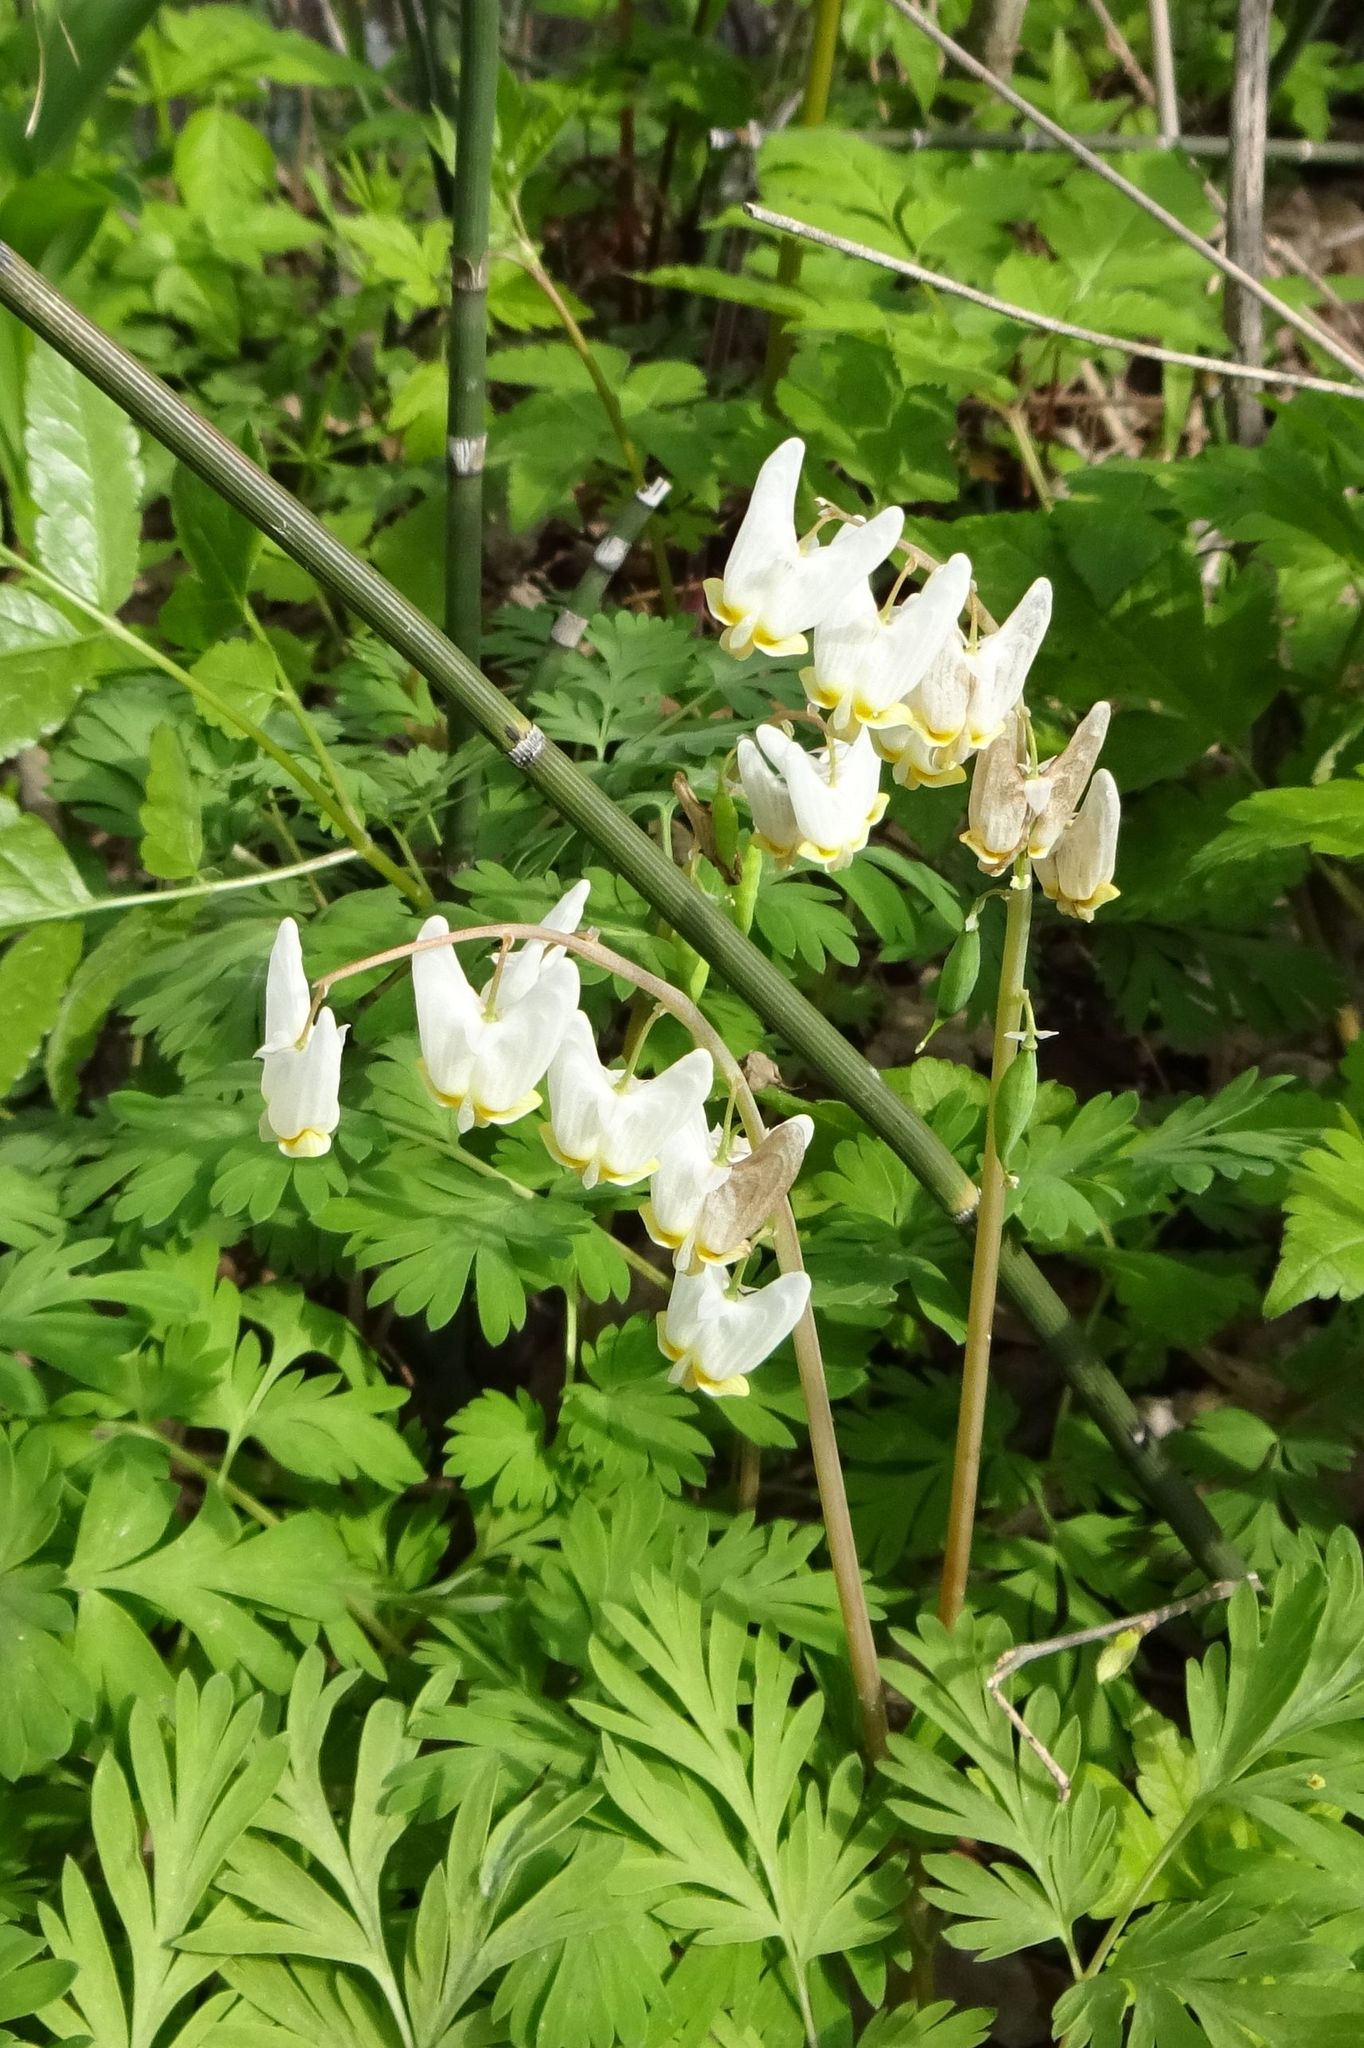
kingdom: Plantae
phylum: Tracheophyta
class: Magnoliopsida
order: Ranunculales
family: Papaveraceae
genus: Dicentra
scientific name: Dicentra cucullaria
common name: Dutchman's breeches
